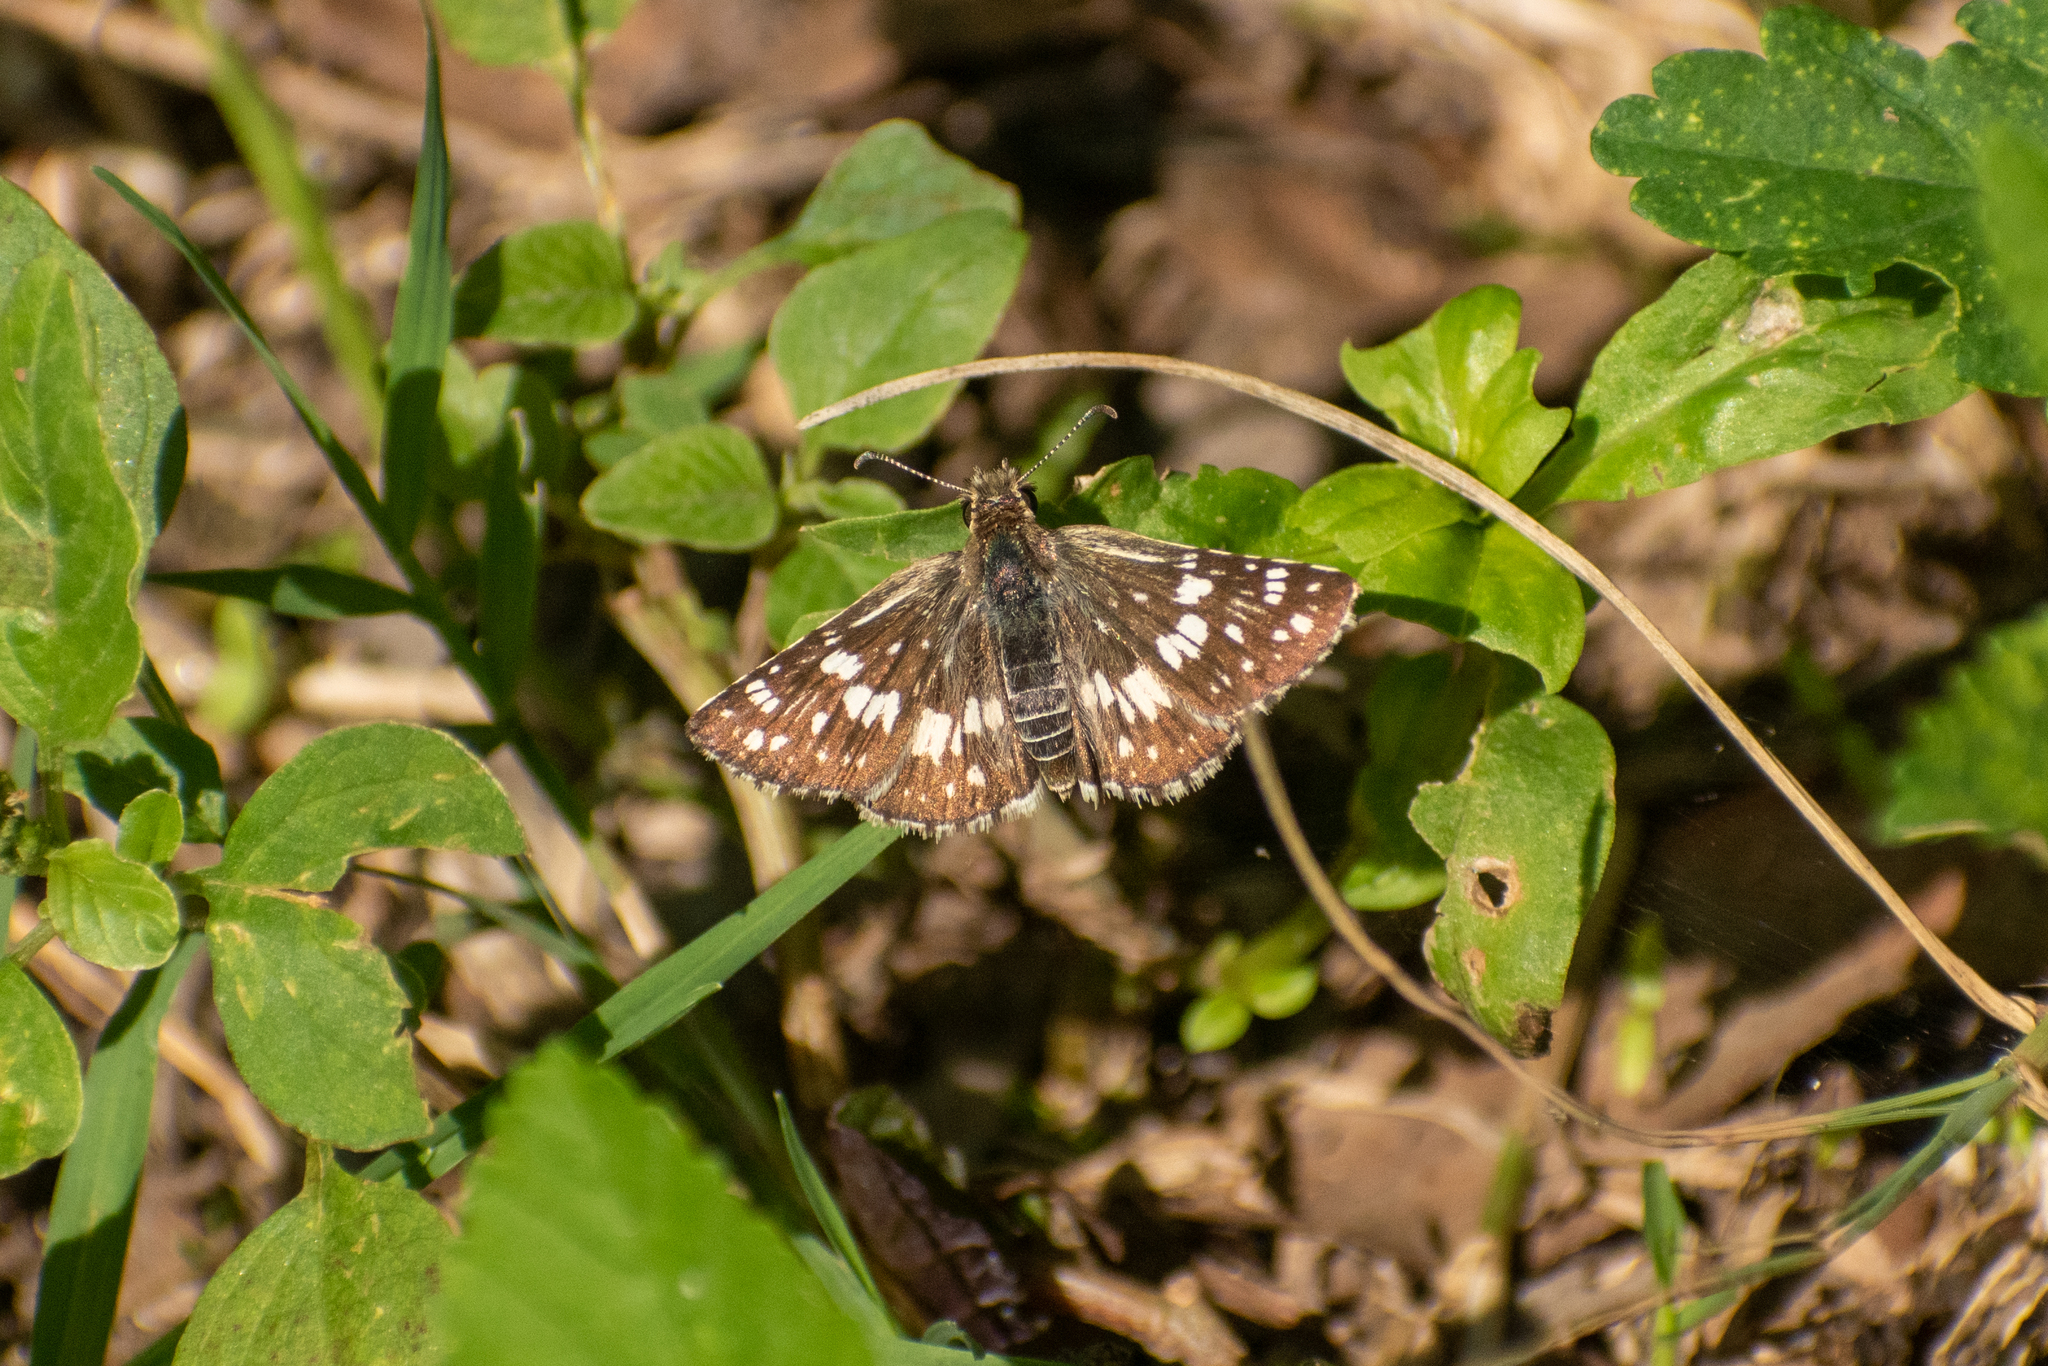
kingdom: Animalia
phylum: Arthropoda
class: Insecta
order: Lepidoptera
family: Hesperiidae
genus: Burnsius
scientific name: Burnsius orcynoides
